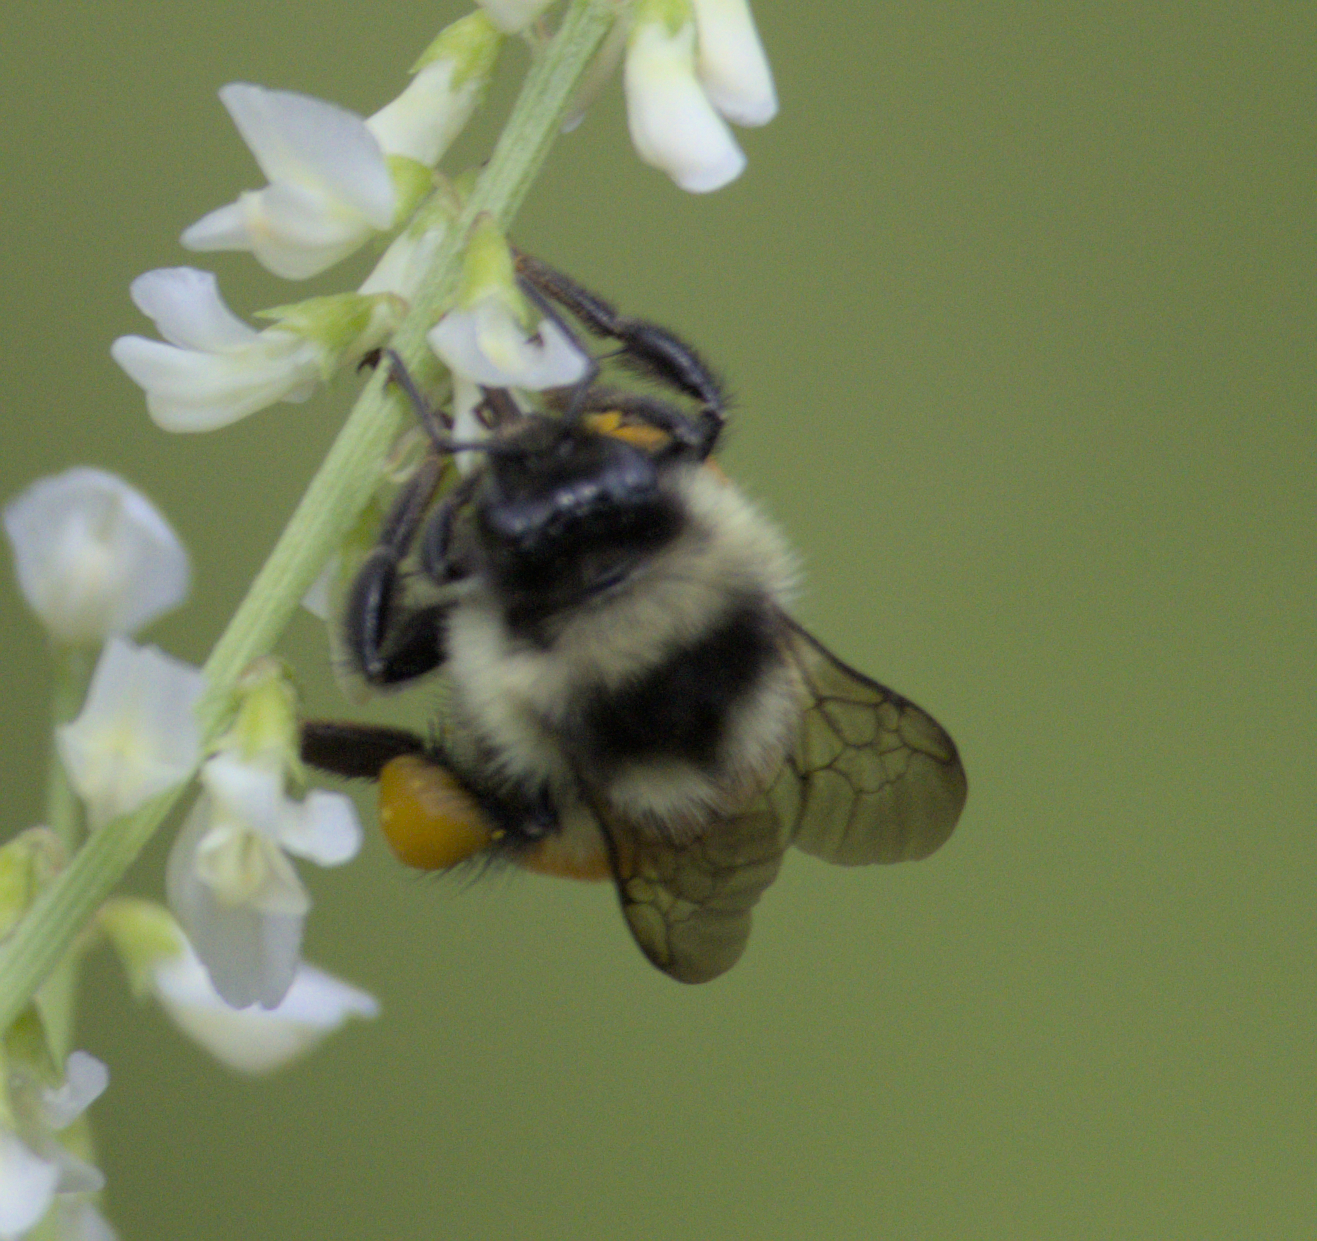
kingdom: Animalia
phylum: Arthropoda
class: Insecta
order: Hymenoptera
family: Apidae
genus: Bombus
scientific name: Bombus ternarius
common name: Tri-colored bumble bee
